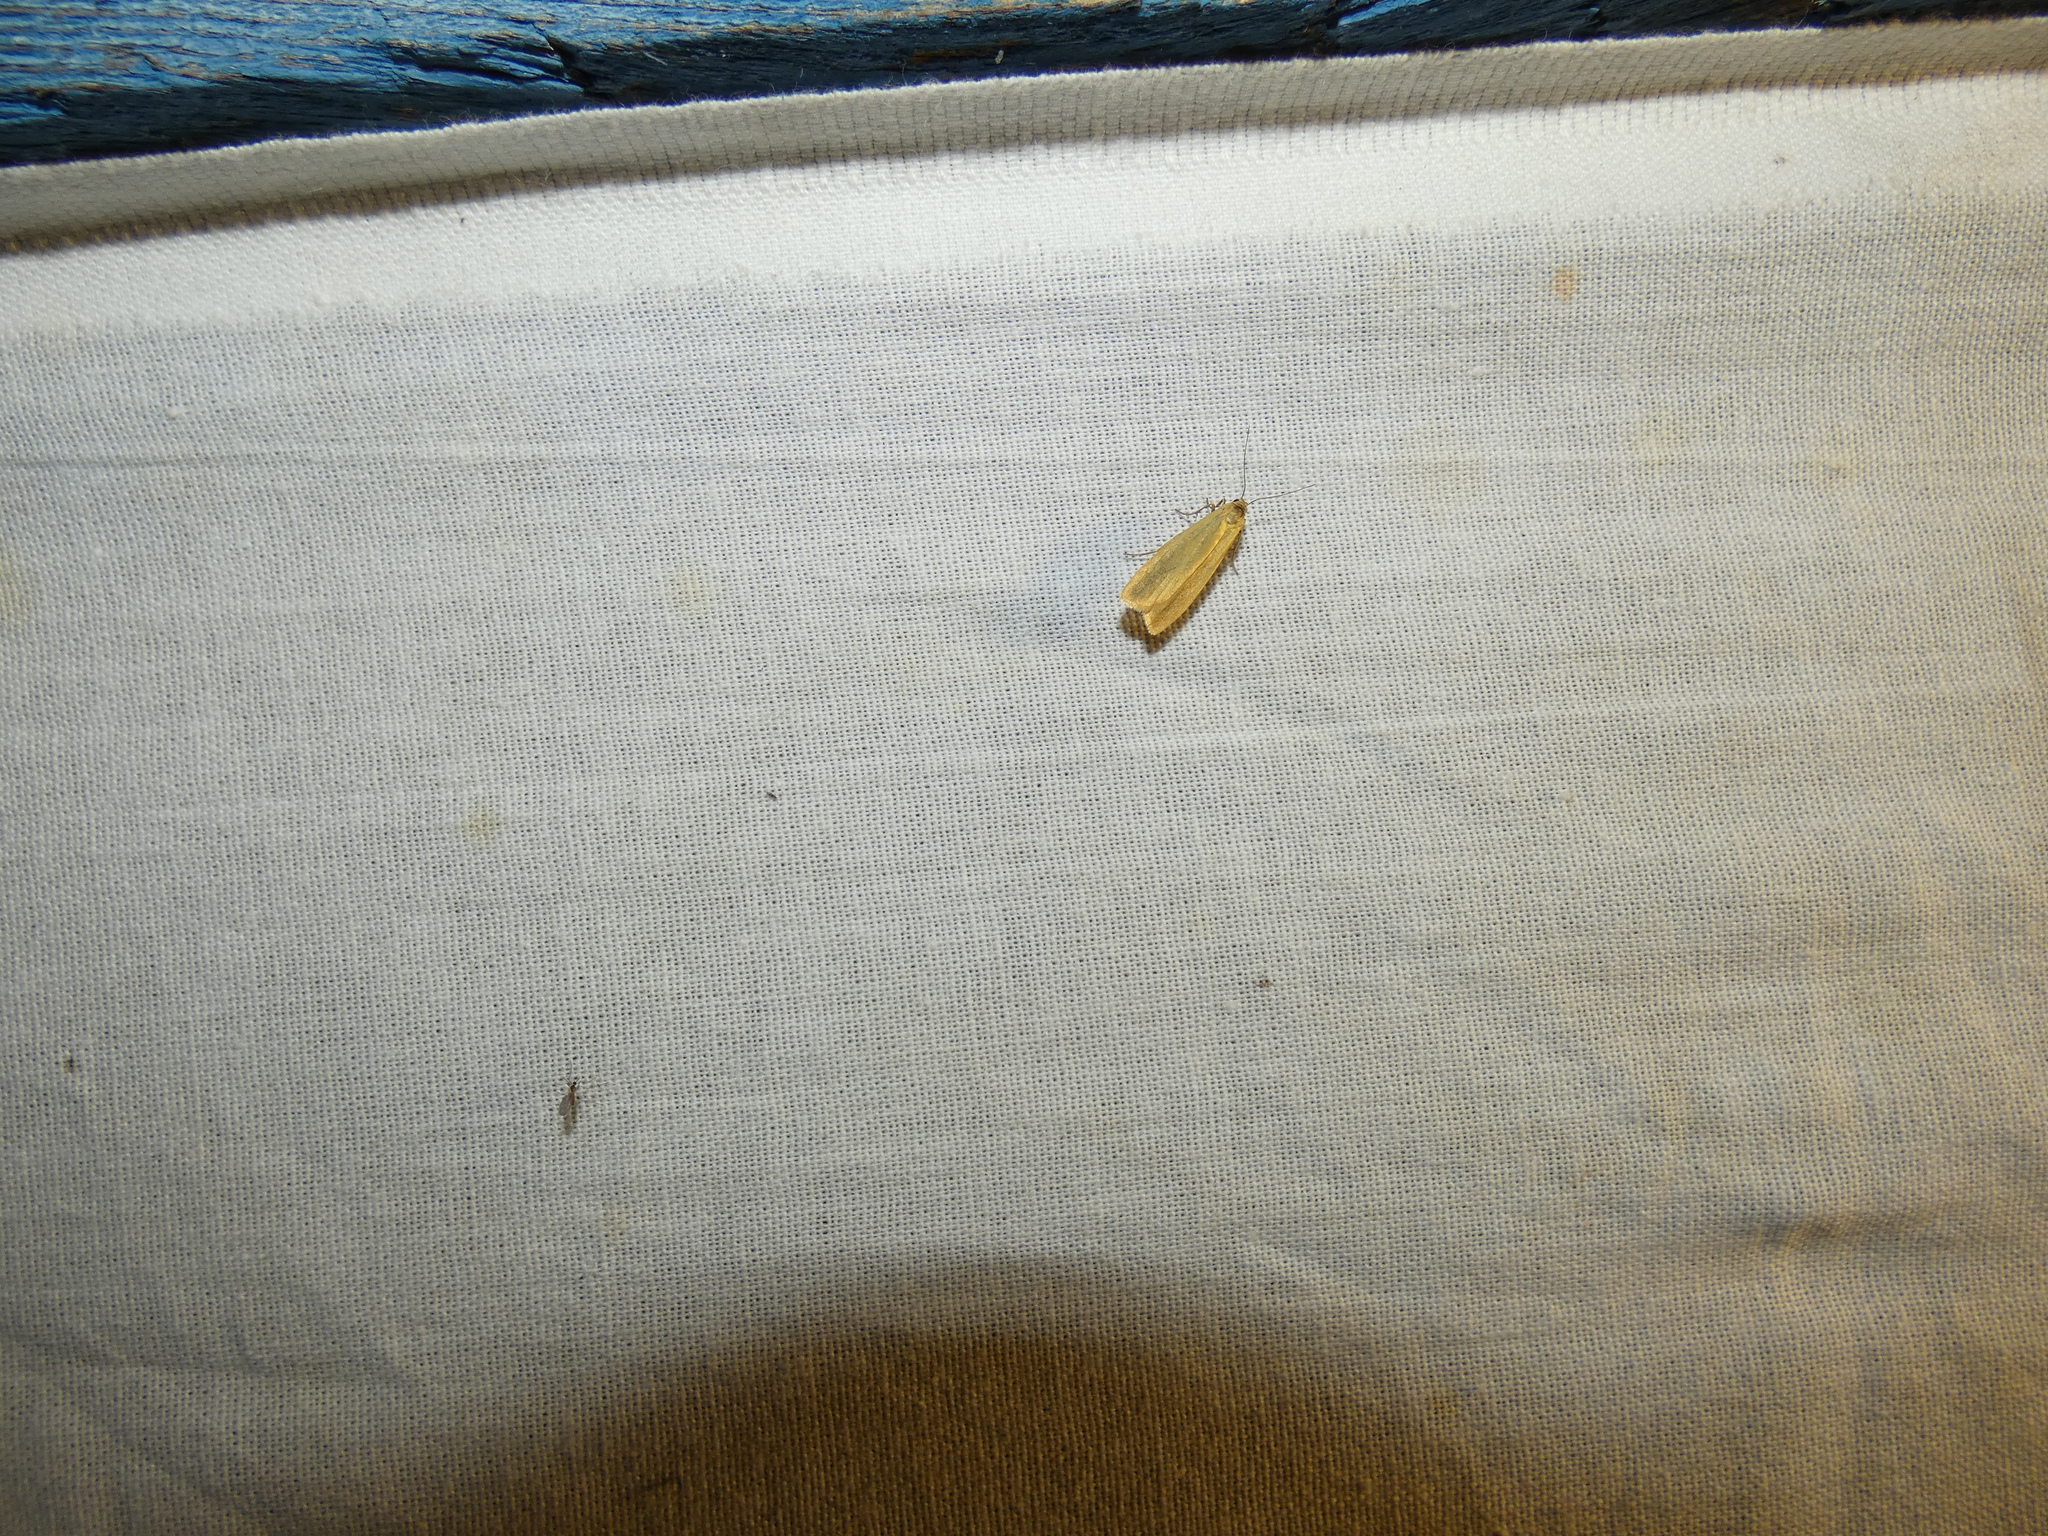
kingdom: Animalia
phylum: Arthropoda
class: Insecta
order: Lepidoptera
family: Erebidae
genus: Indalia
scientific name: Indalia lutarella
